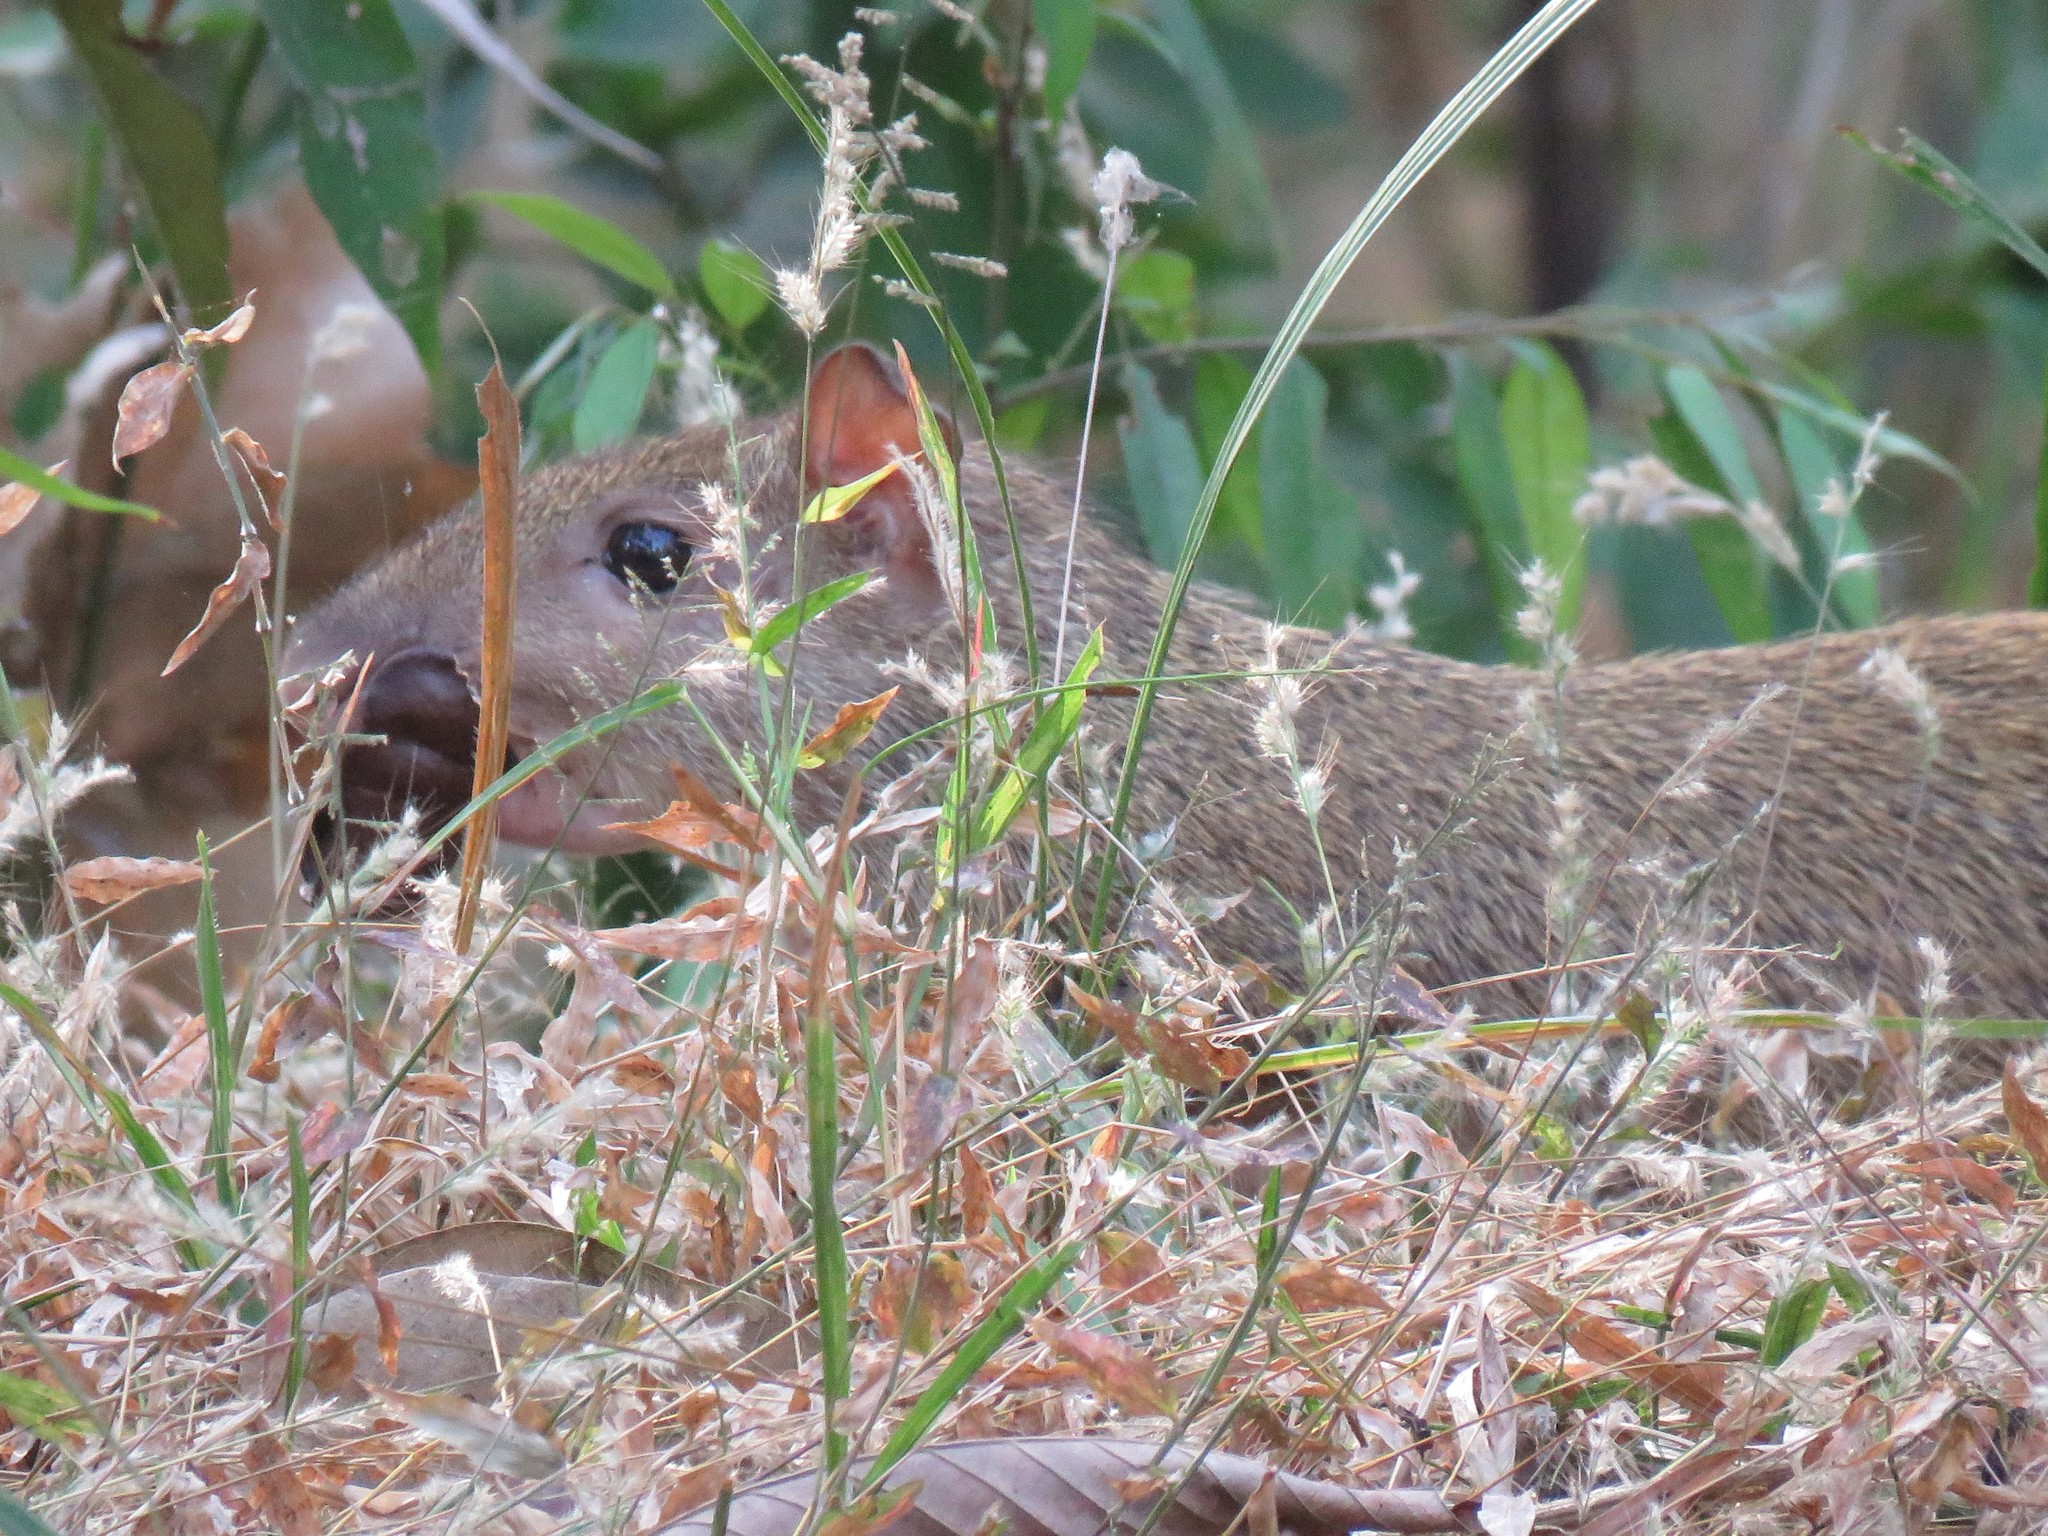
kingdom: Animalia
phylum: Chordata
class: Mammalia
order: Rodentia
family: Dasyproctidae
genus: Dasyprocta
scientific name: Dasyprocta punctata
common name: Central american agouti
